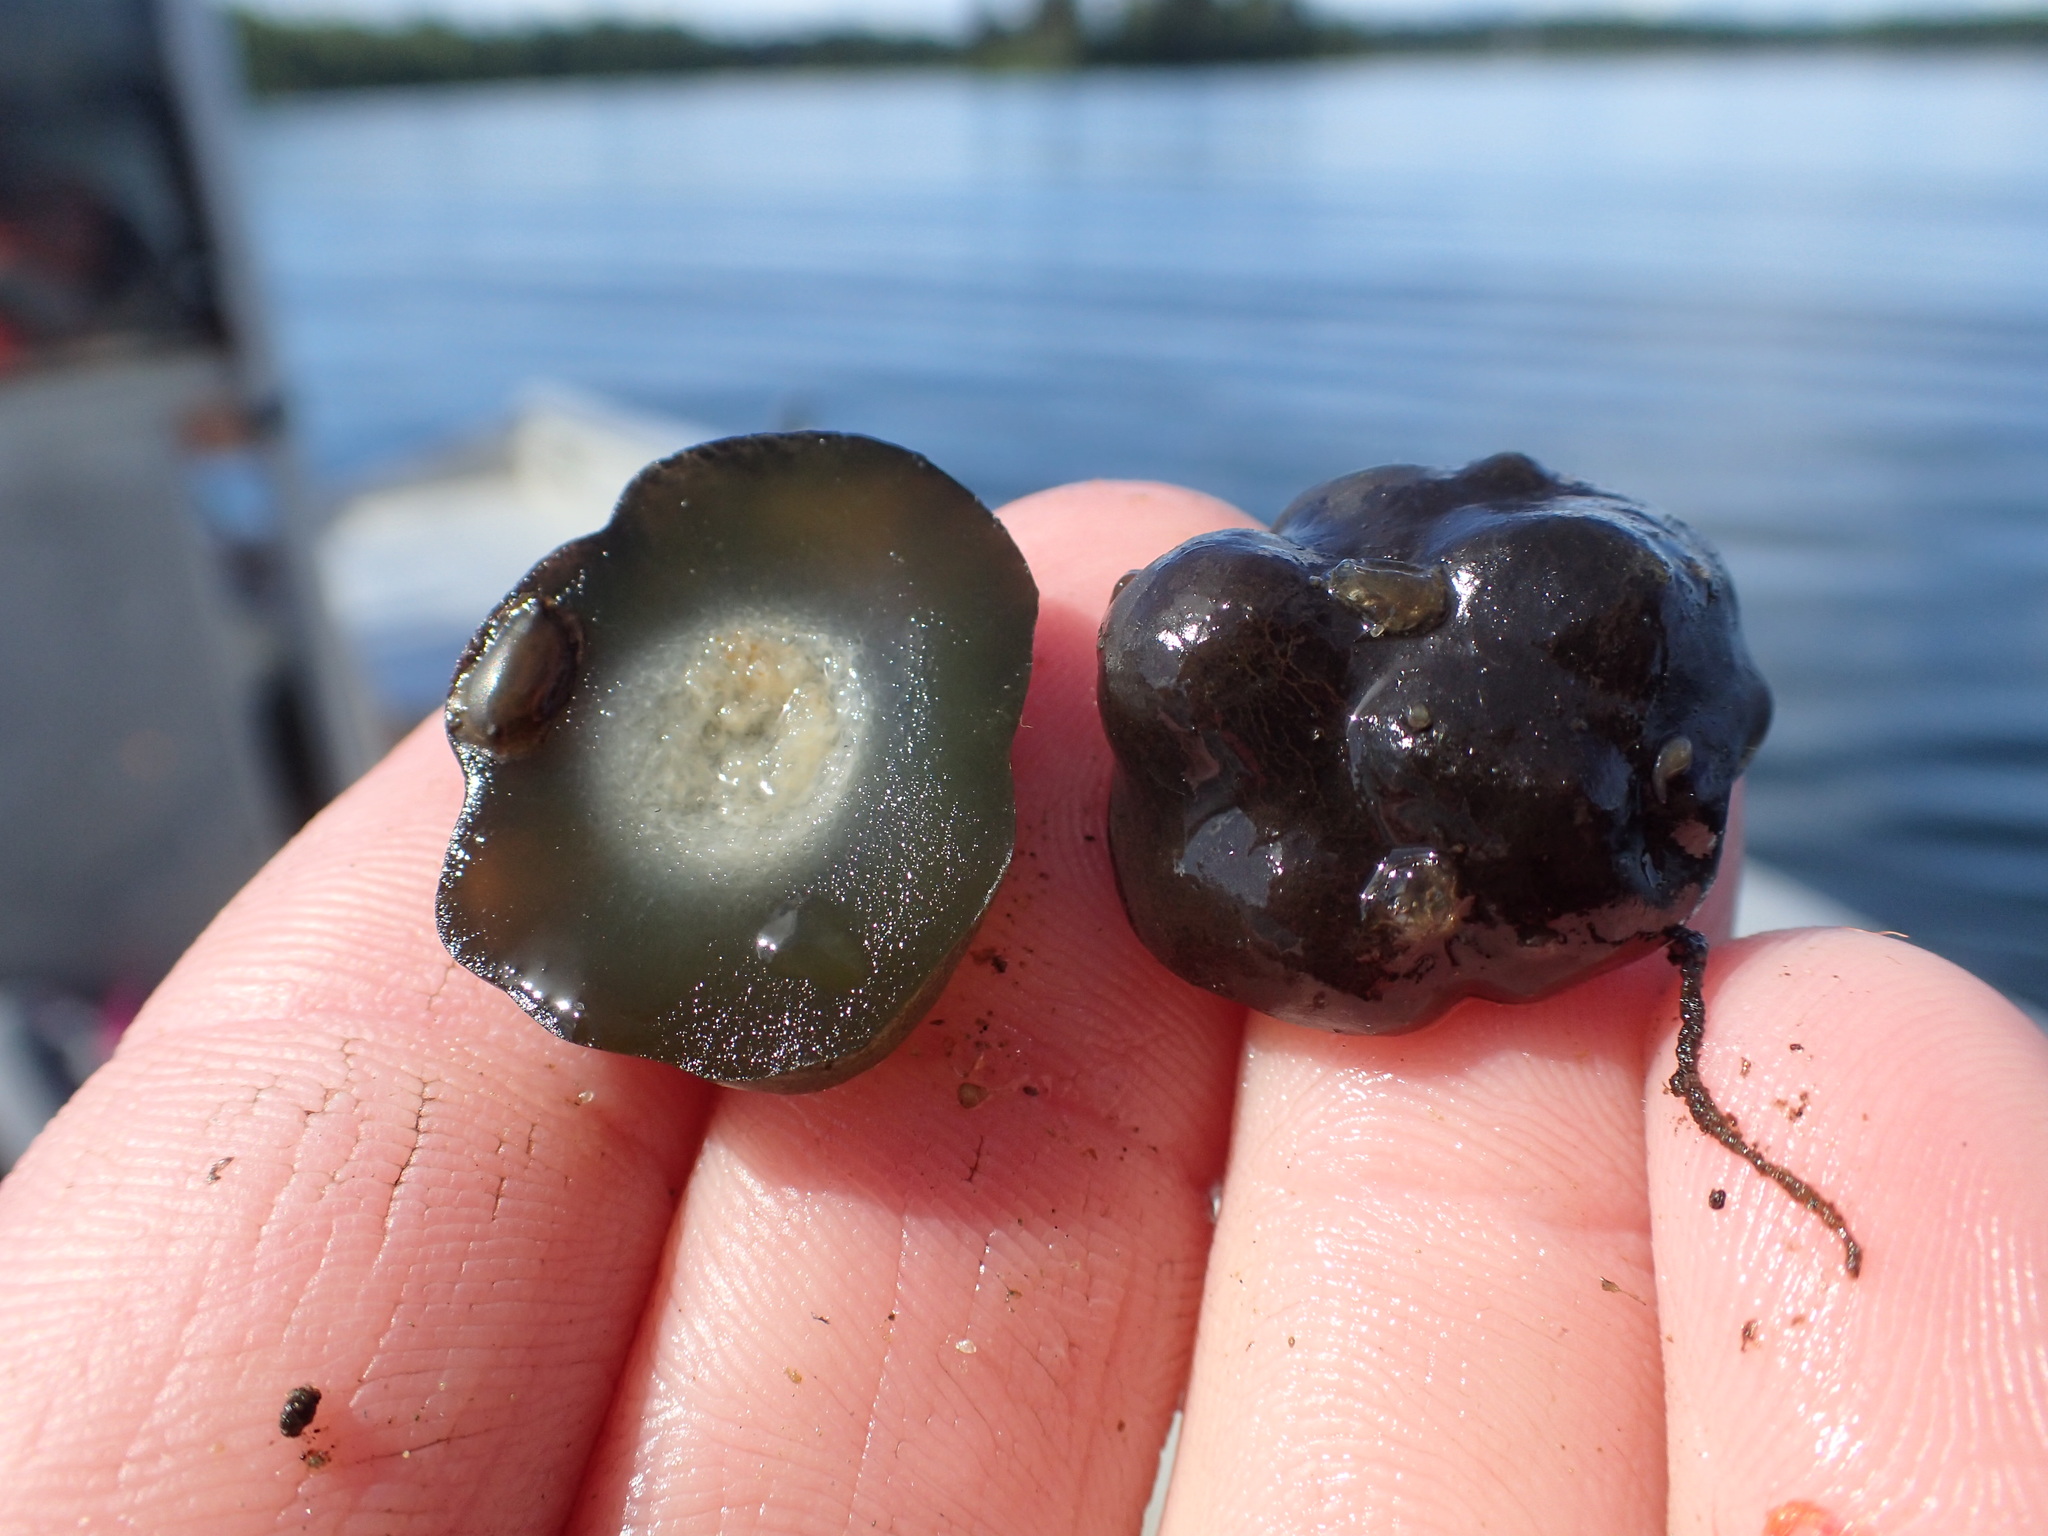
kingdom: Bacteria
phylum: Cyanobacteria
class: Cyanobacteriia
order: Cyanobacteriales
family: Nostocaceae
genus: Nostoc
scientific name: Nostoc pruniforme
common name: Mare's eggs
